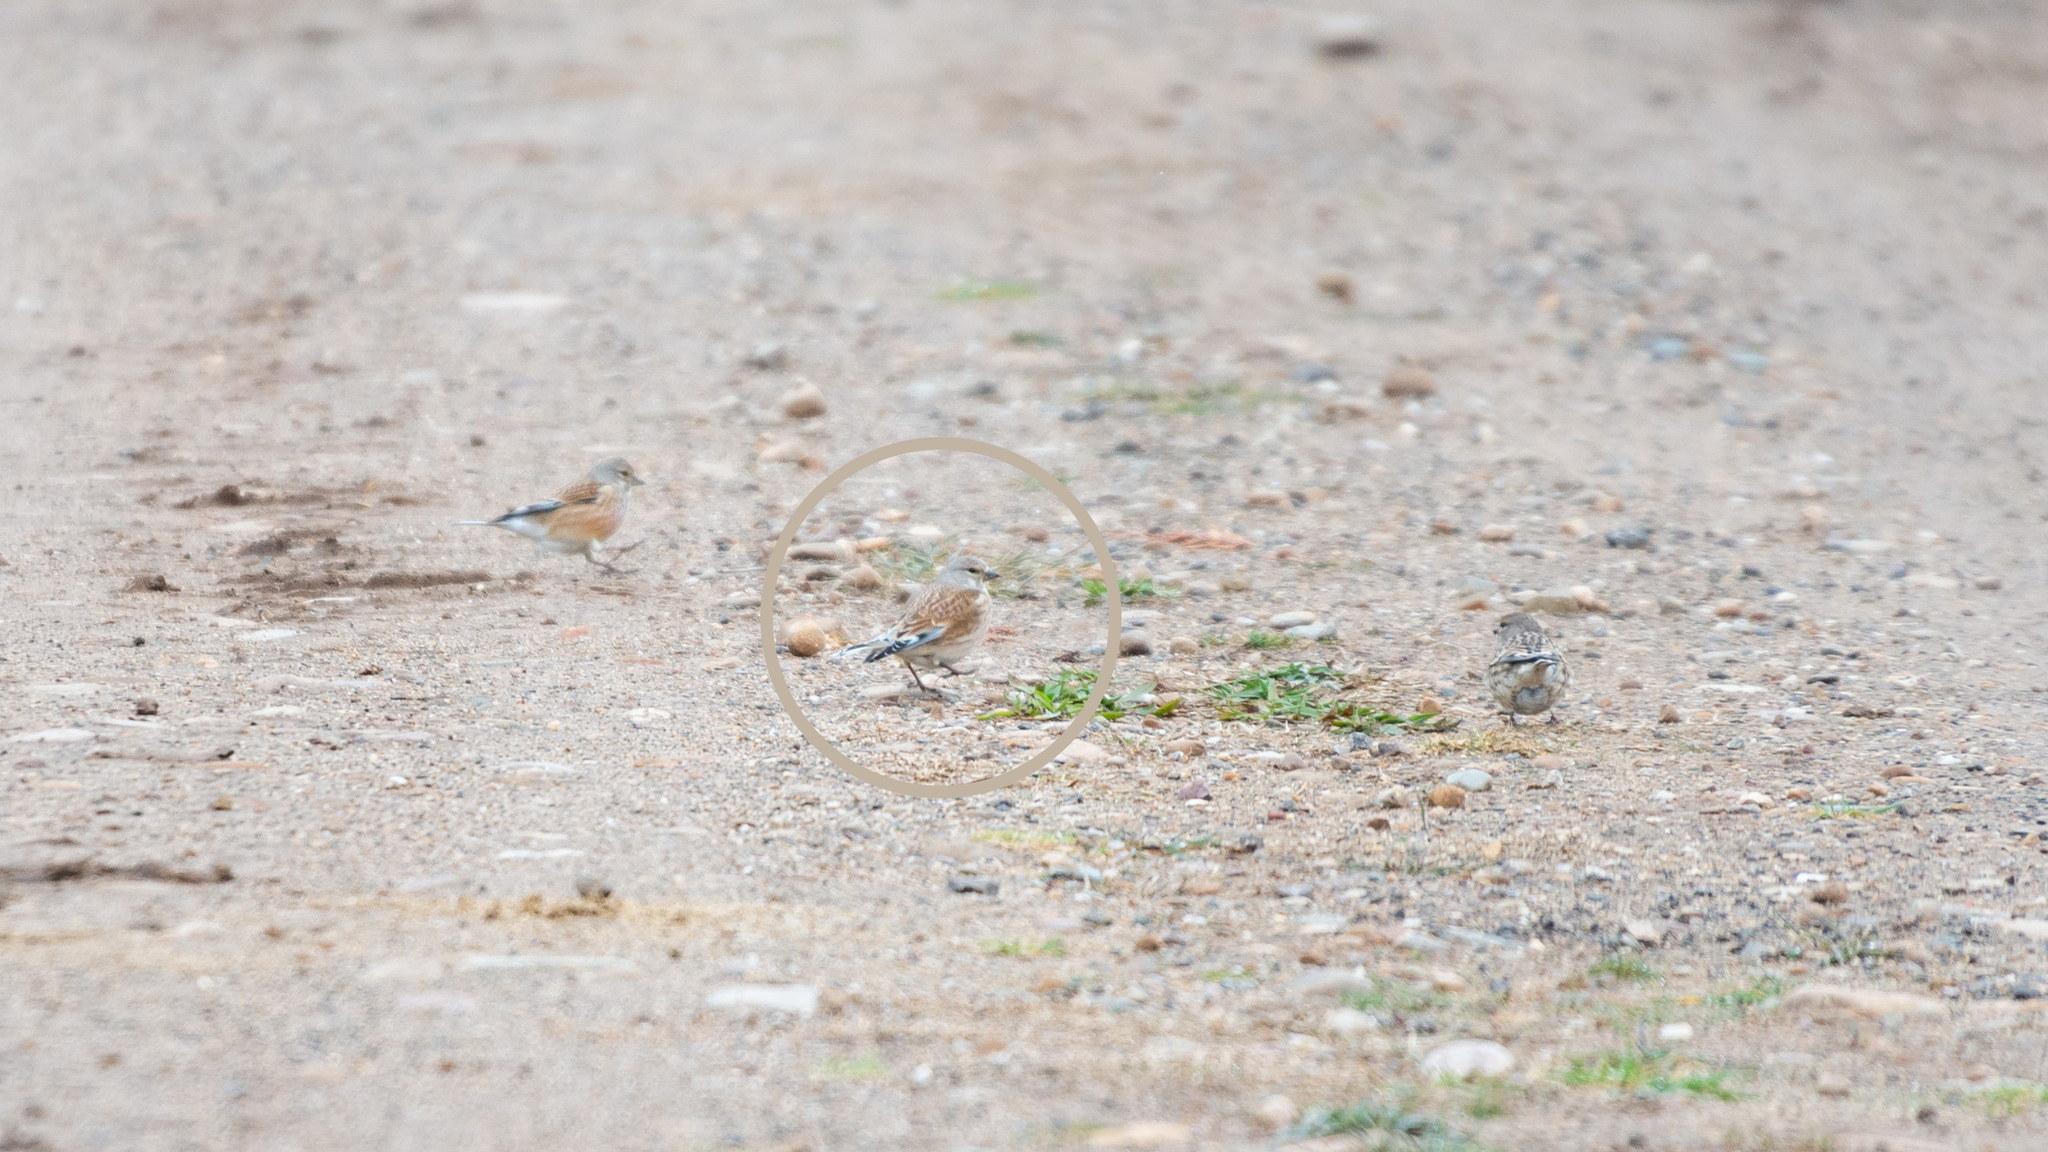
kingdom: Animalia
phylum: Chordata
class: Aves
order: Passeriformes
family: Fringillidae
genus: Linaria
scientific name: Linaria cannabina
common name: Common linnet
